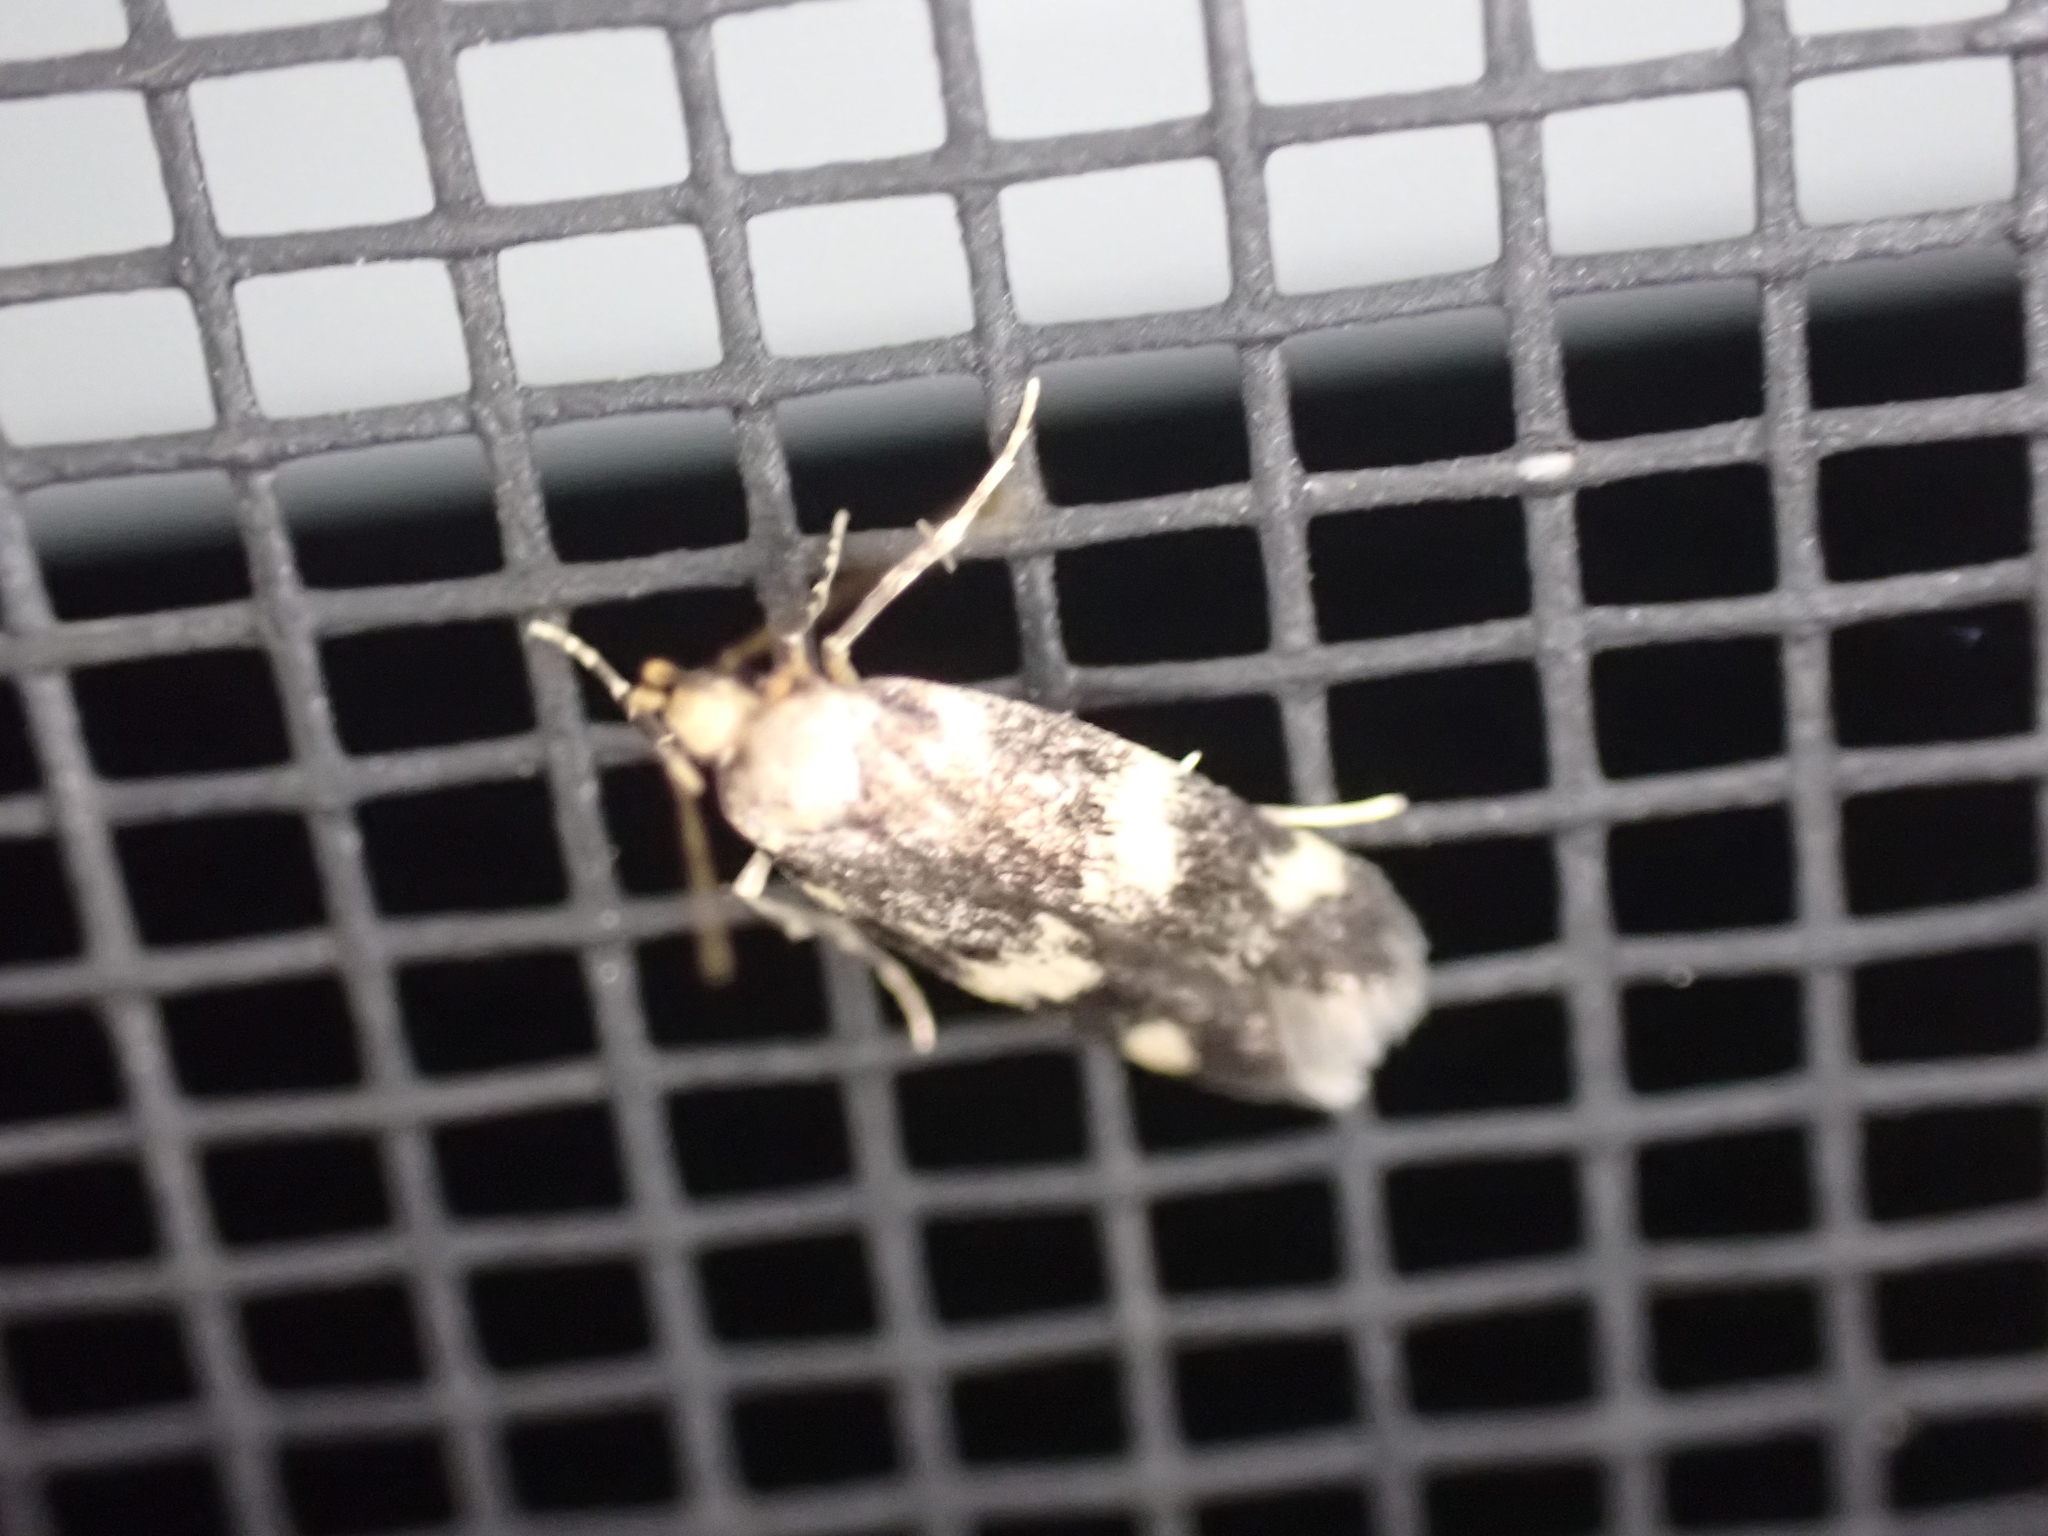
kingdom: Animalia
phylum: Arthropoda
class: Insecta
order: Lepidoptera
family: Autostichidae
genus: Oegoconia
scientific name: Oegoconia quadripuncta
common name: Four-spotted obscure
